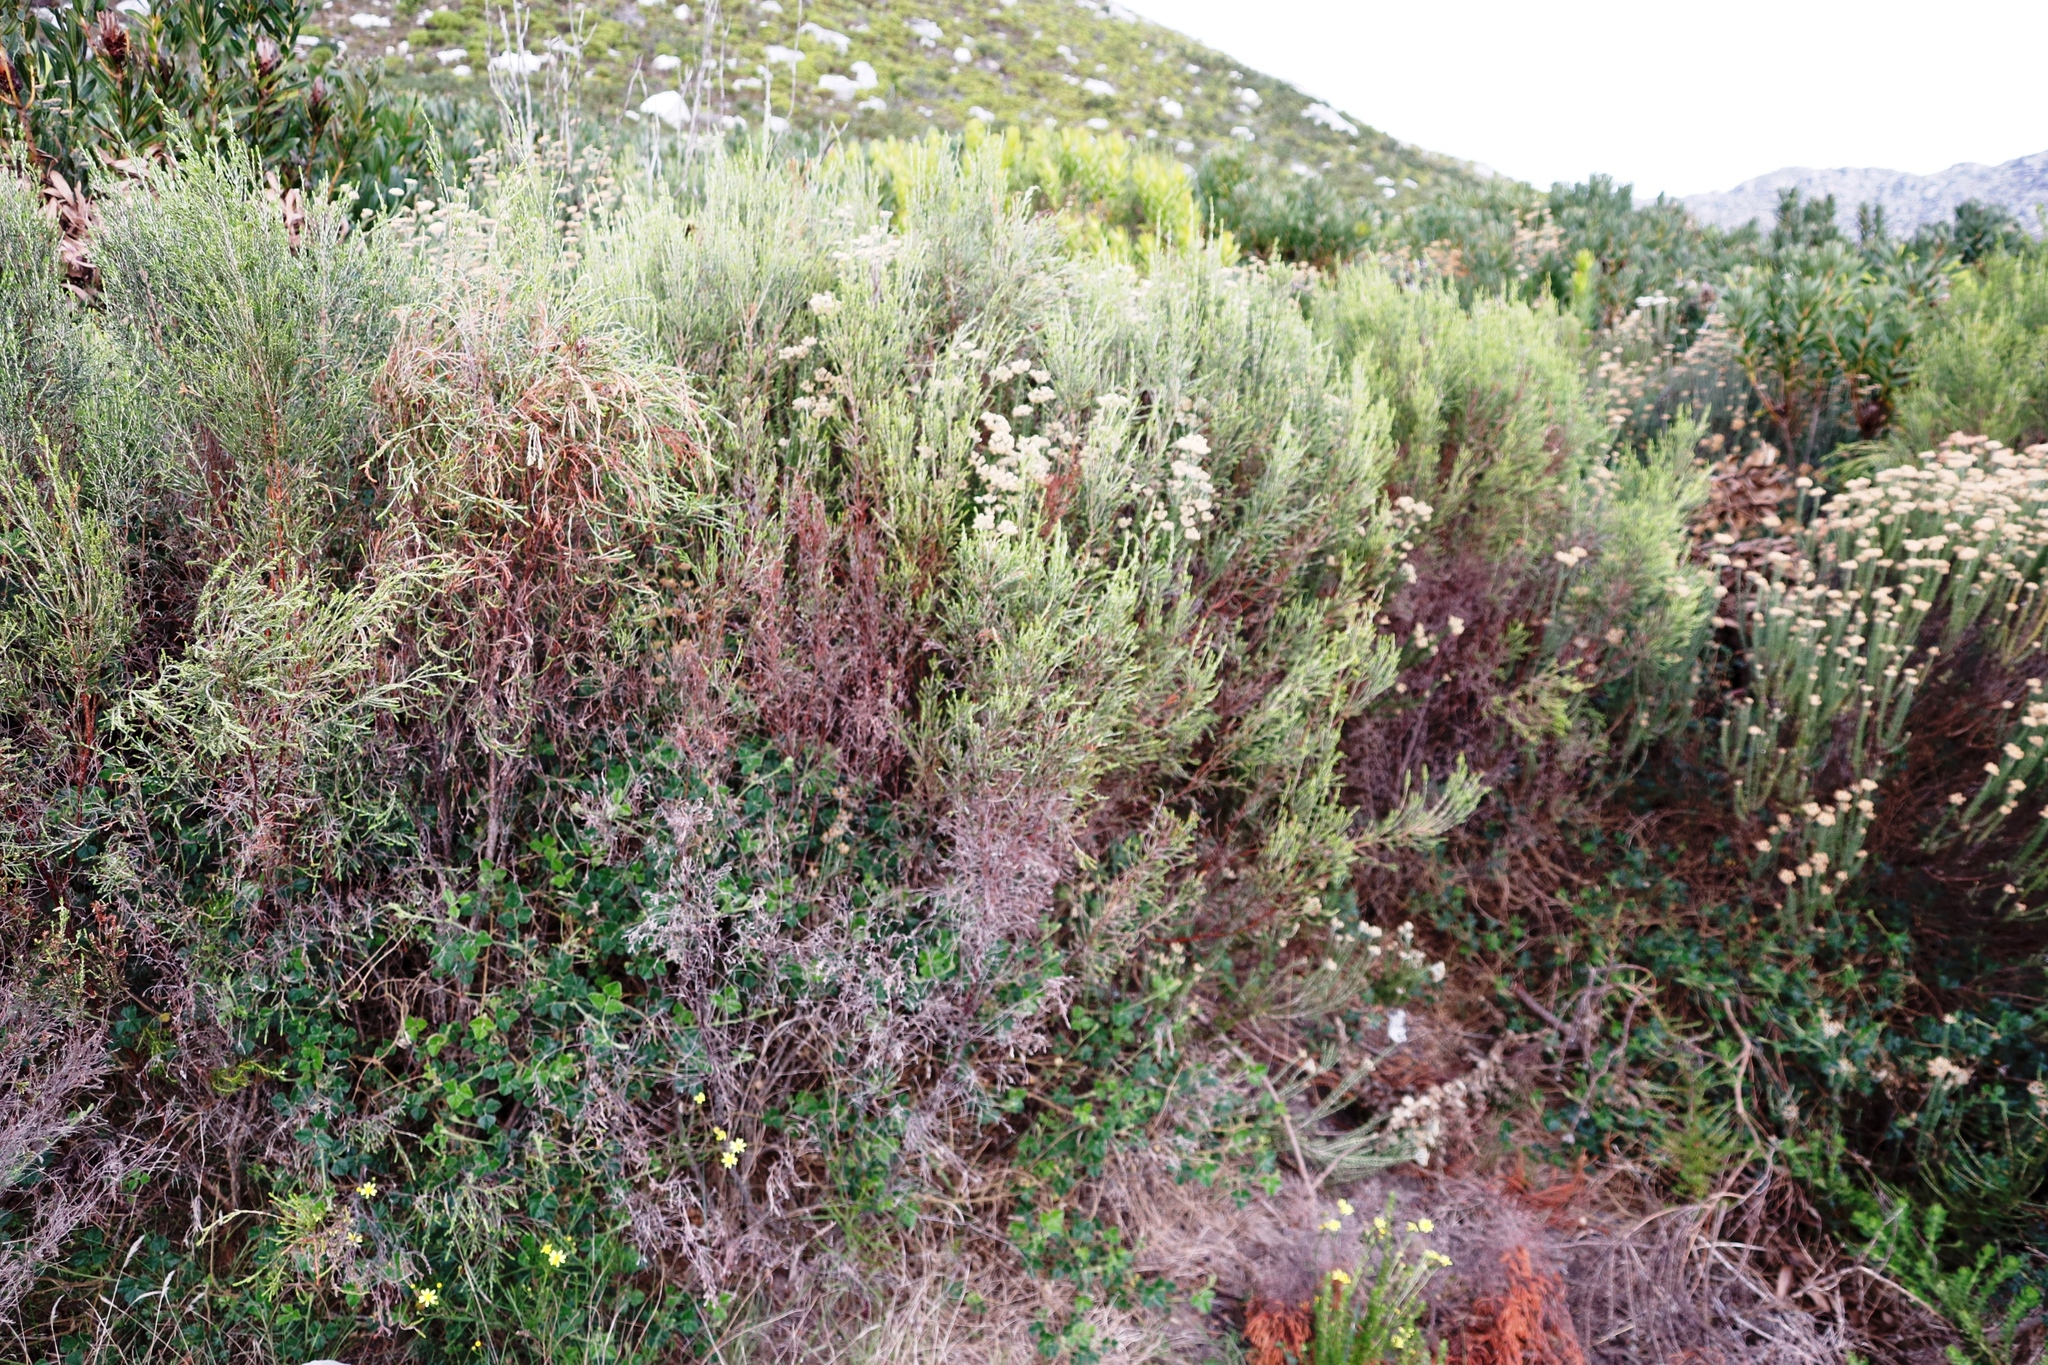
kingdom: Plantae
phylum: Tracheophyta
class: Magnoliopsida
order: Fabales
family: Fabaceae
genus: Bolusafra
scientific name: Bolusafra bituminosa
